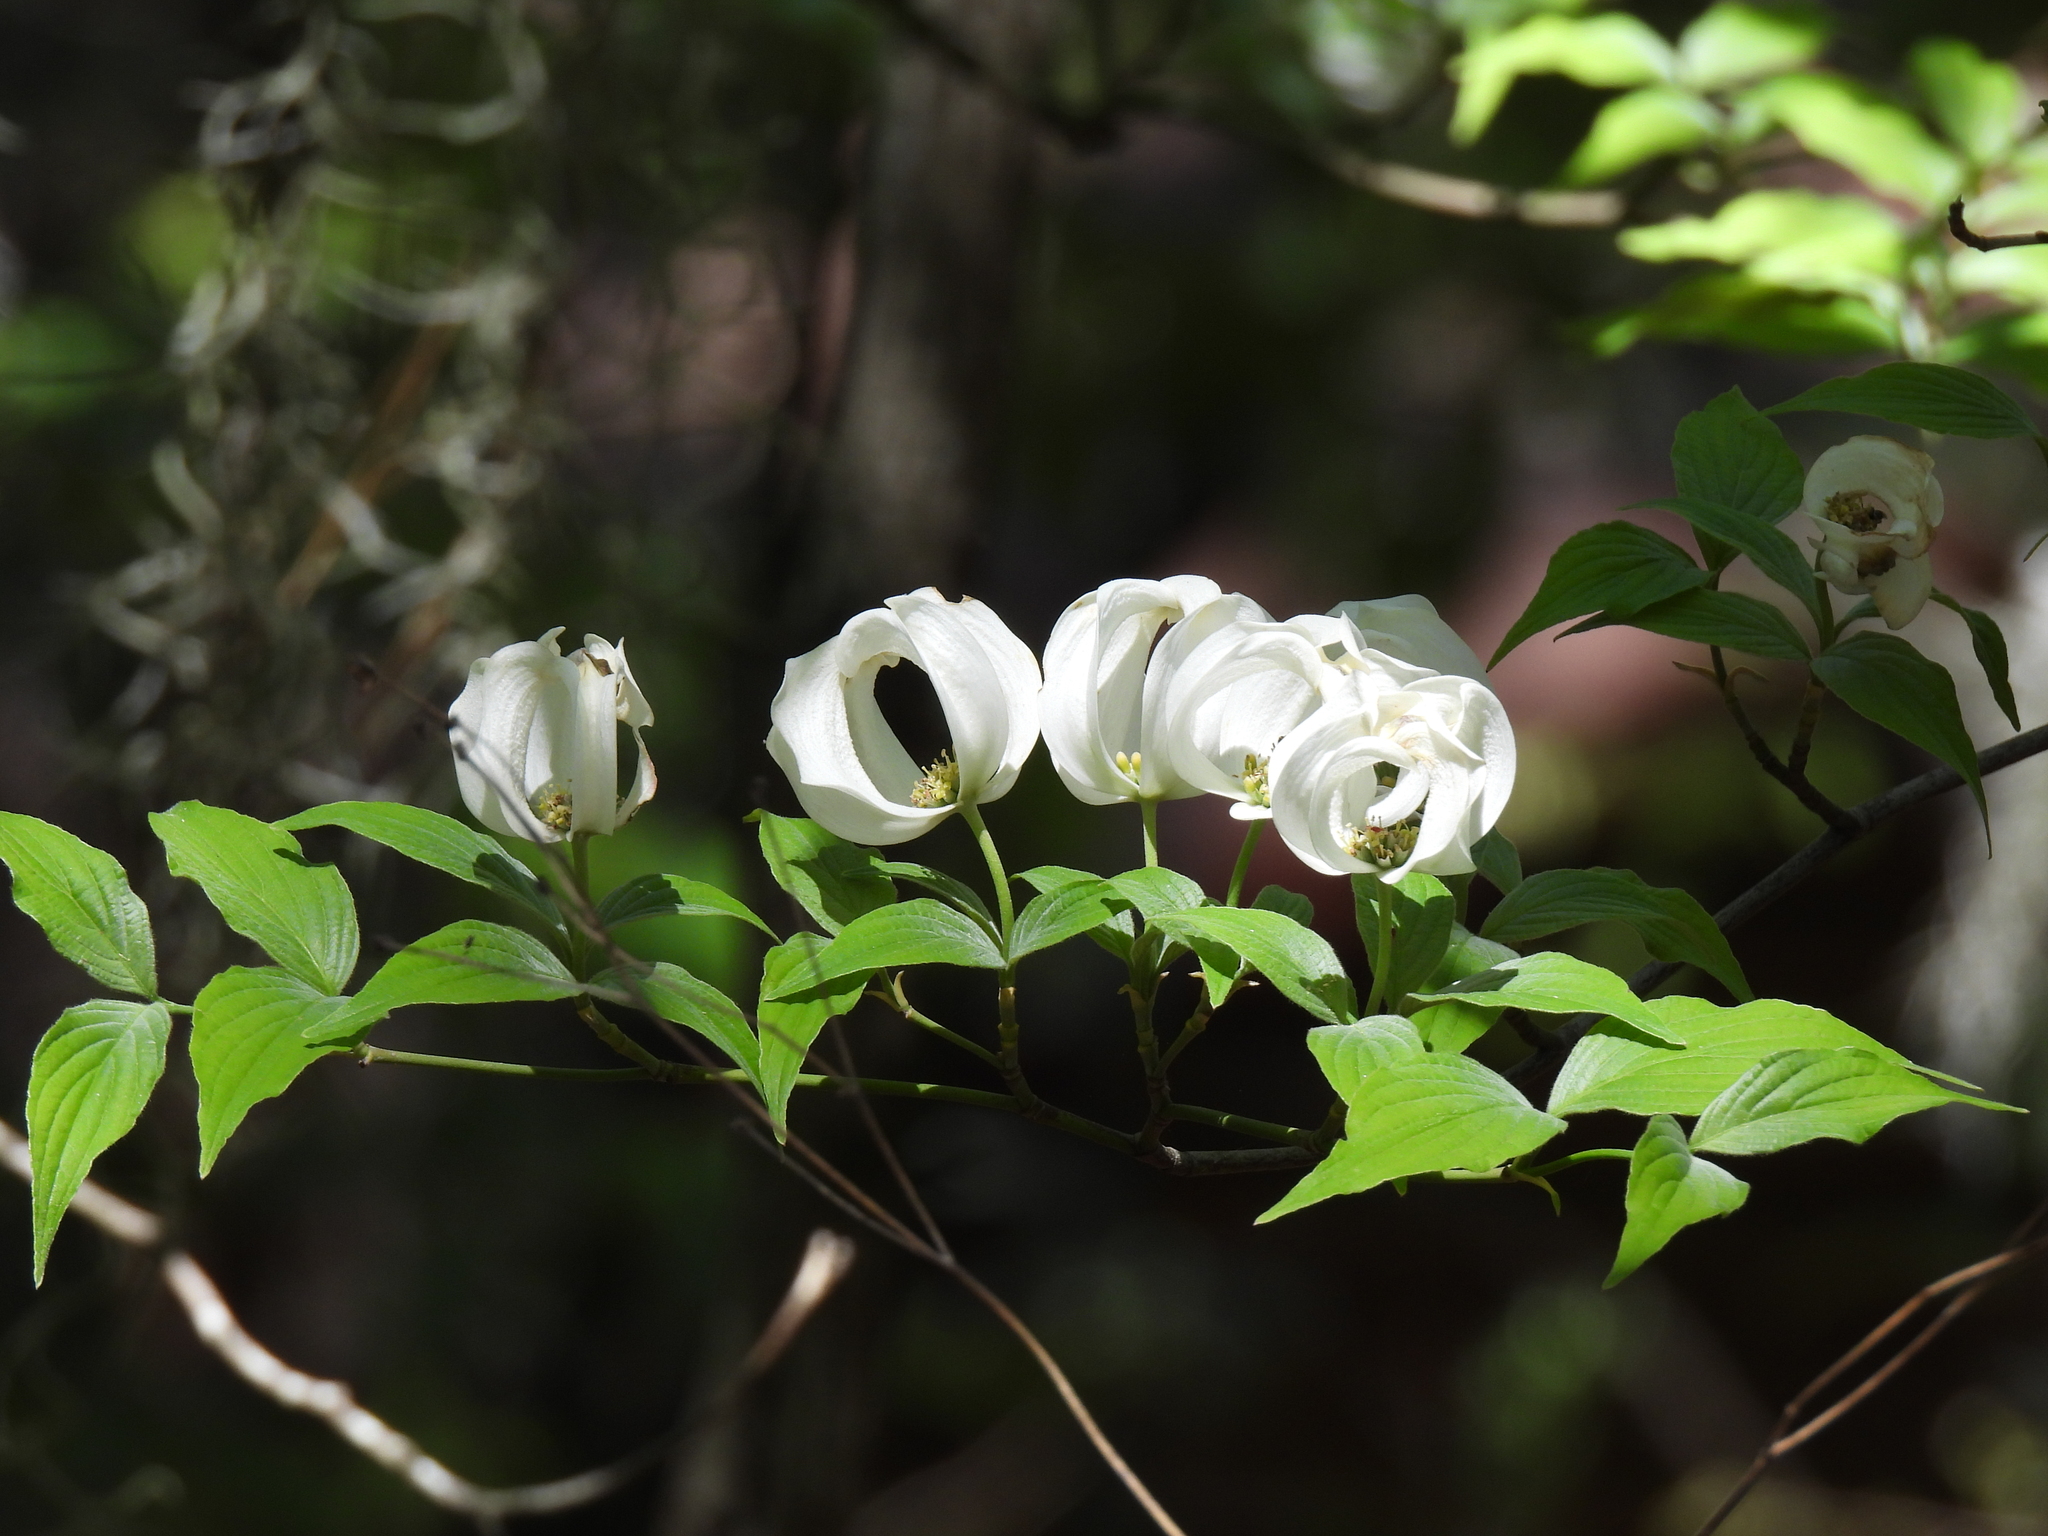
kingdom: Plantae
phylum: Tracheophyta
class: Magnoliopsida
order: Cornales
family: Cornaceae
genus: Cornus
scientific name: Cornus florida
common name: Flowering dogwood
